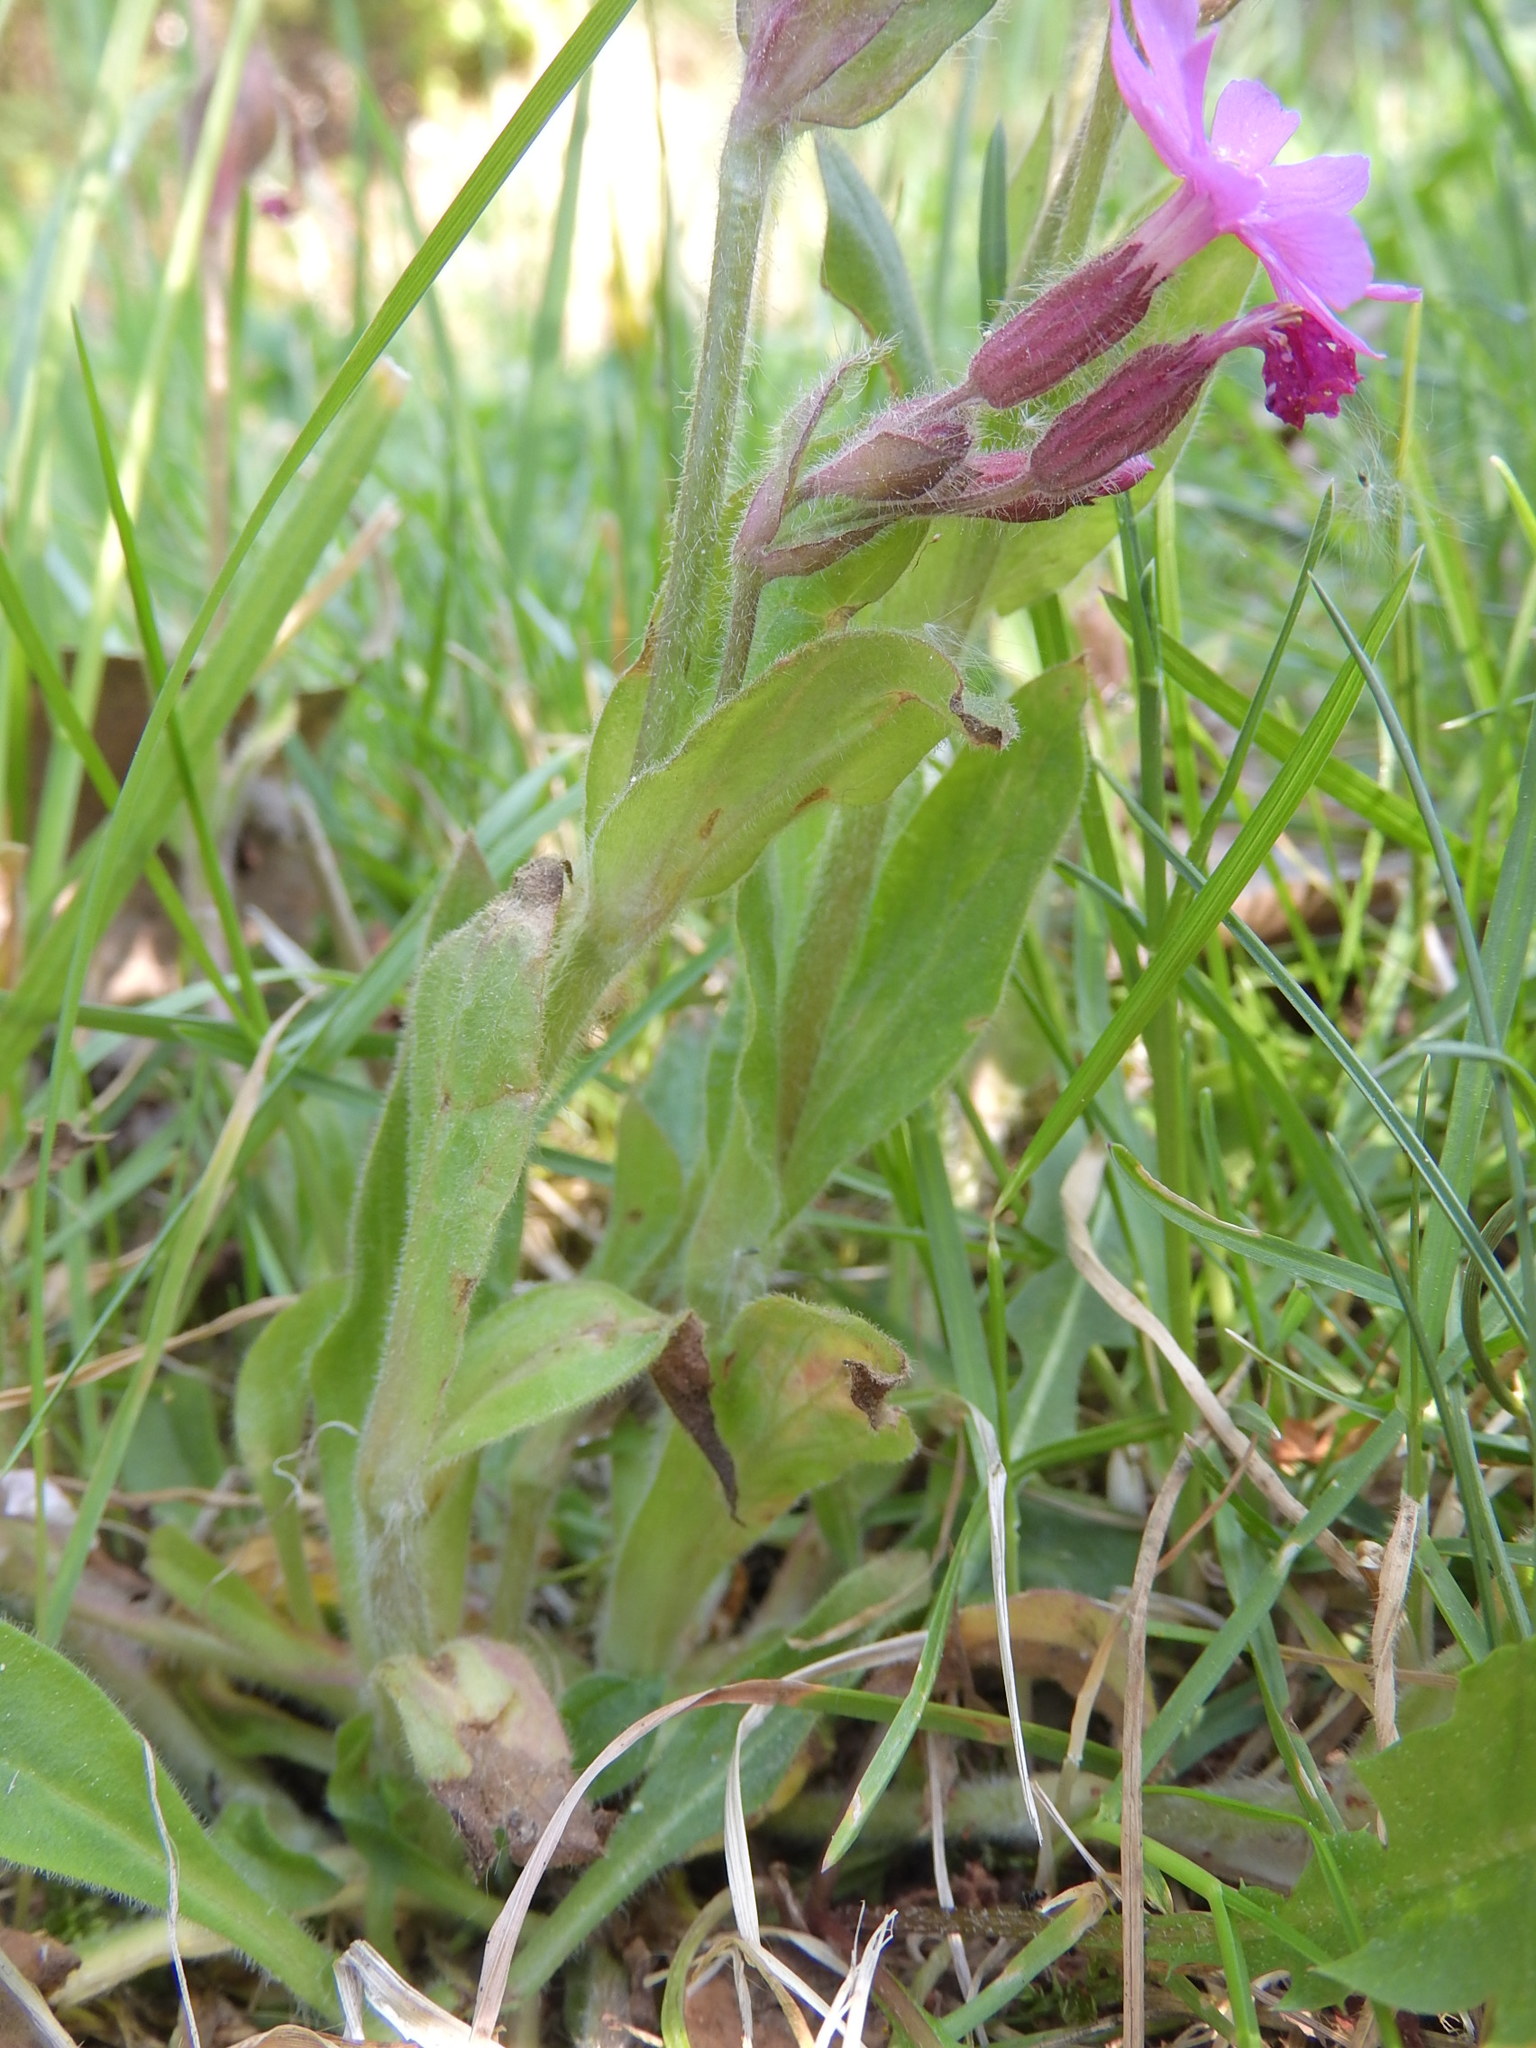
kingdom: Plantae
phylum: Tracheophyta
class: Magnoliopsida
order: Caryophyllales
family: Caryophyllaceae
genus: Silene
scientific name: Silene dioica
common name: Red campion
